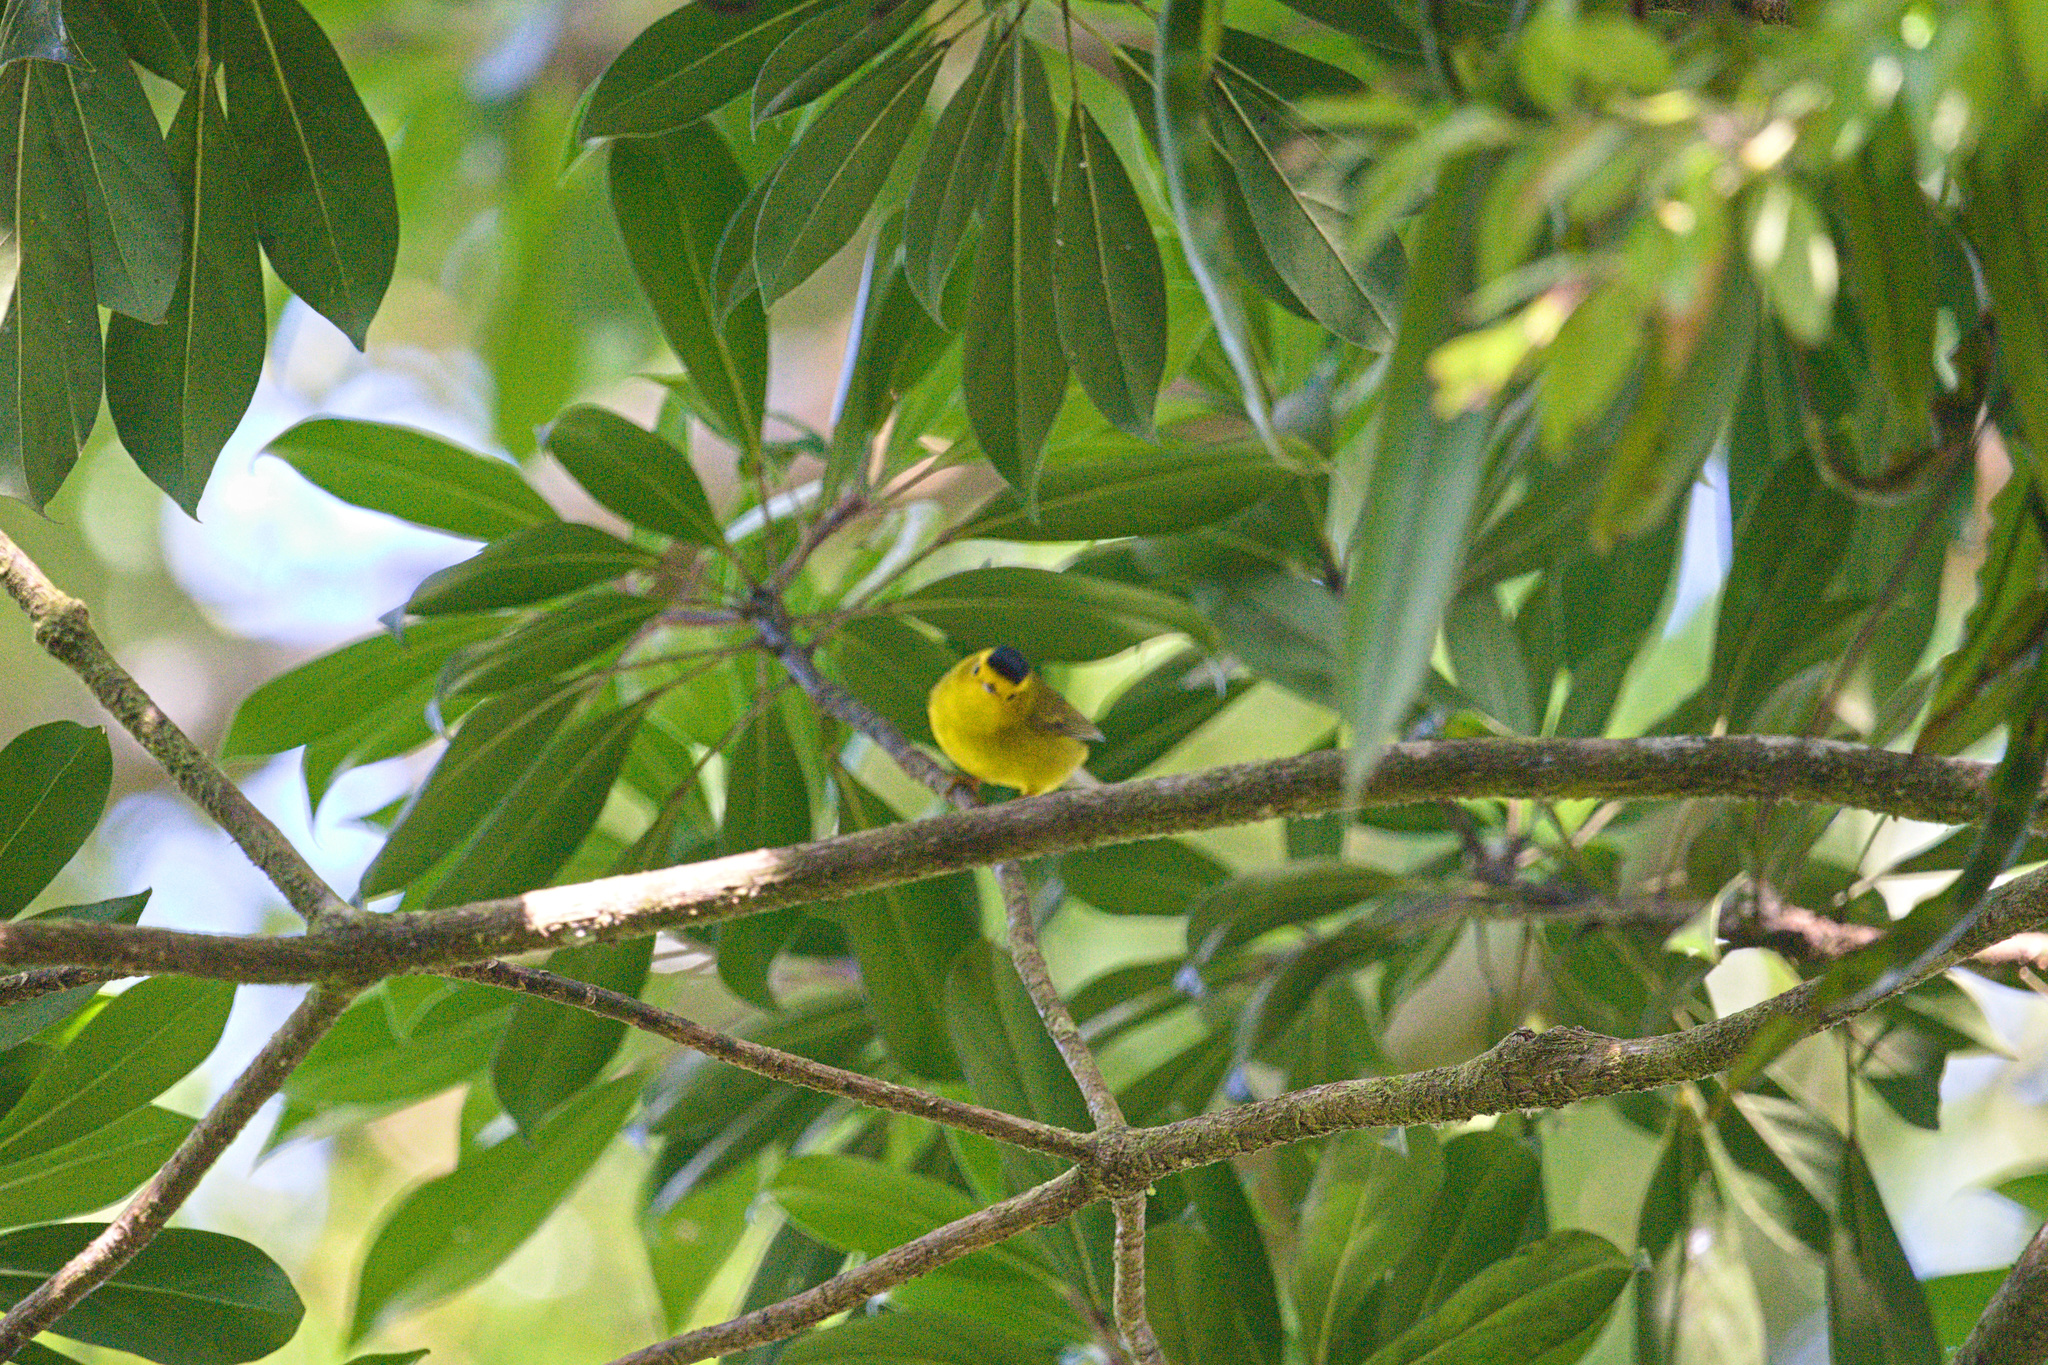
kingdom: Animalia
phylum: Chordata
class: Aves
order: Passeriformes
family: Parulidae
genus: Cardellina
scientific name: Cardellina pusilla
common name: Wilson's warbler
